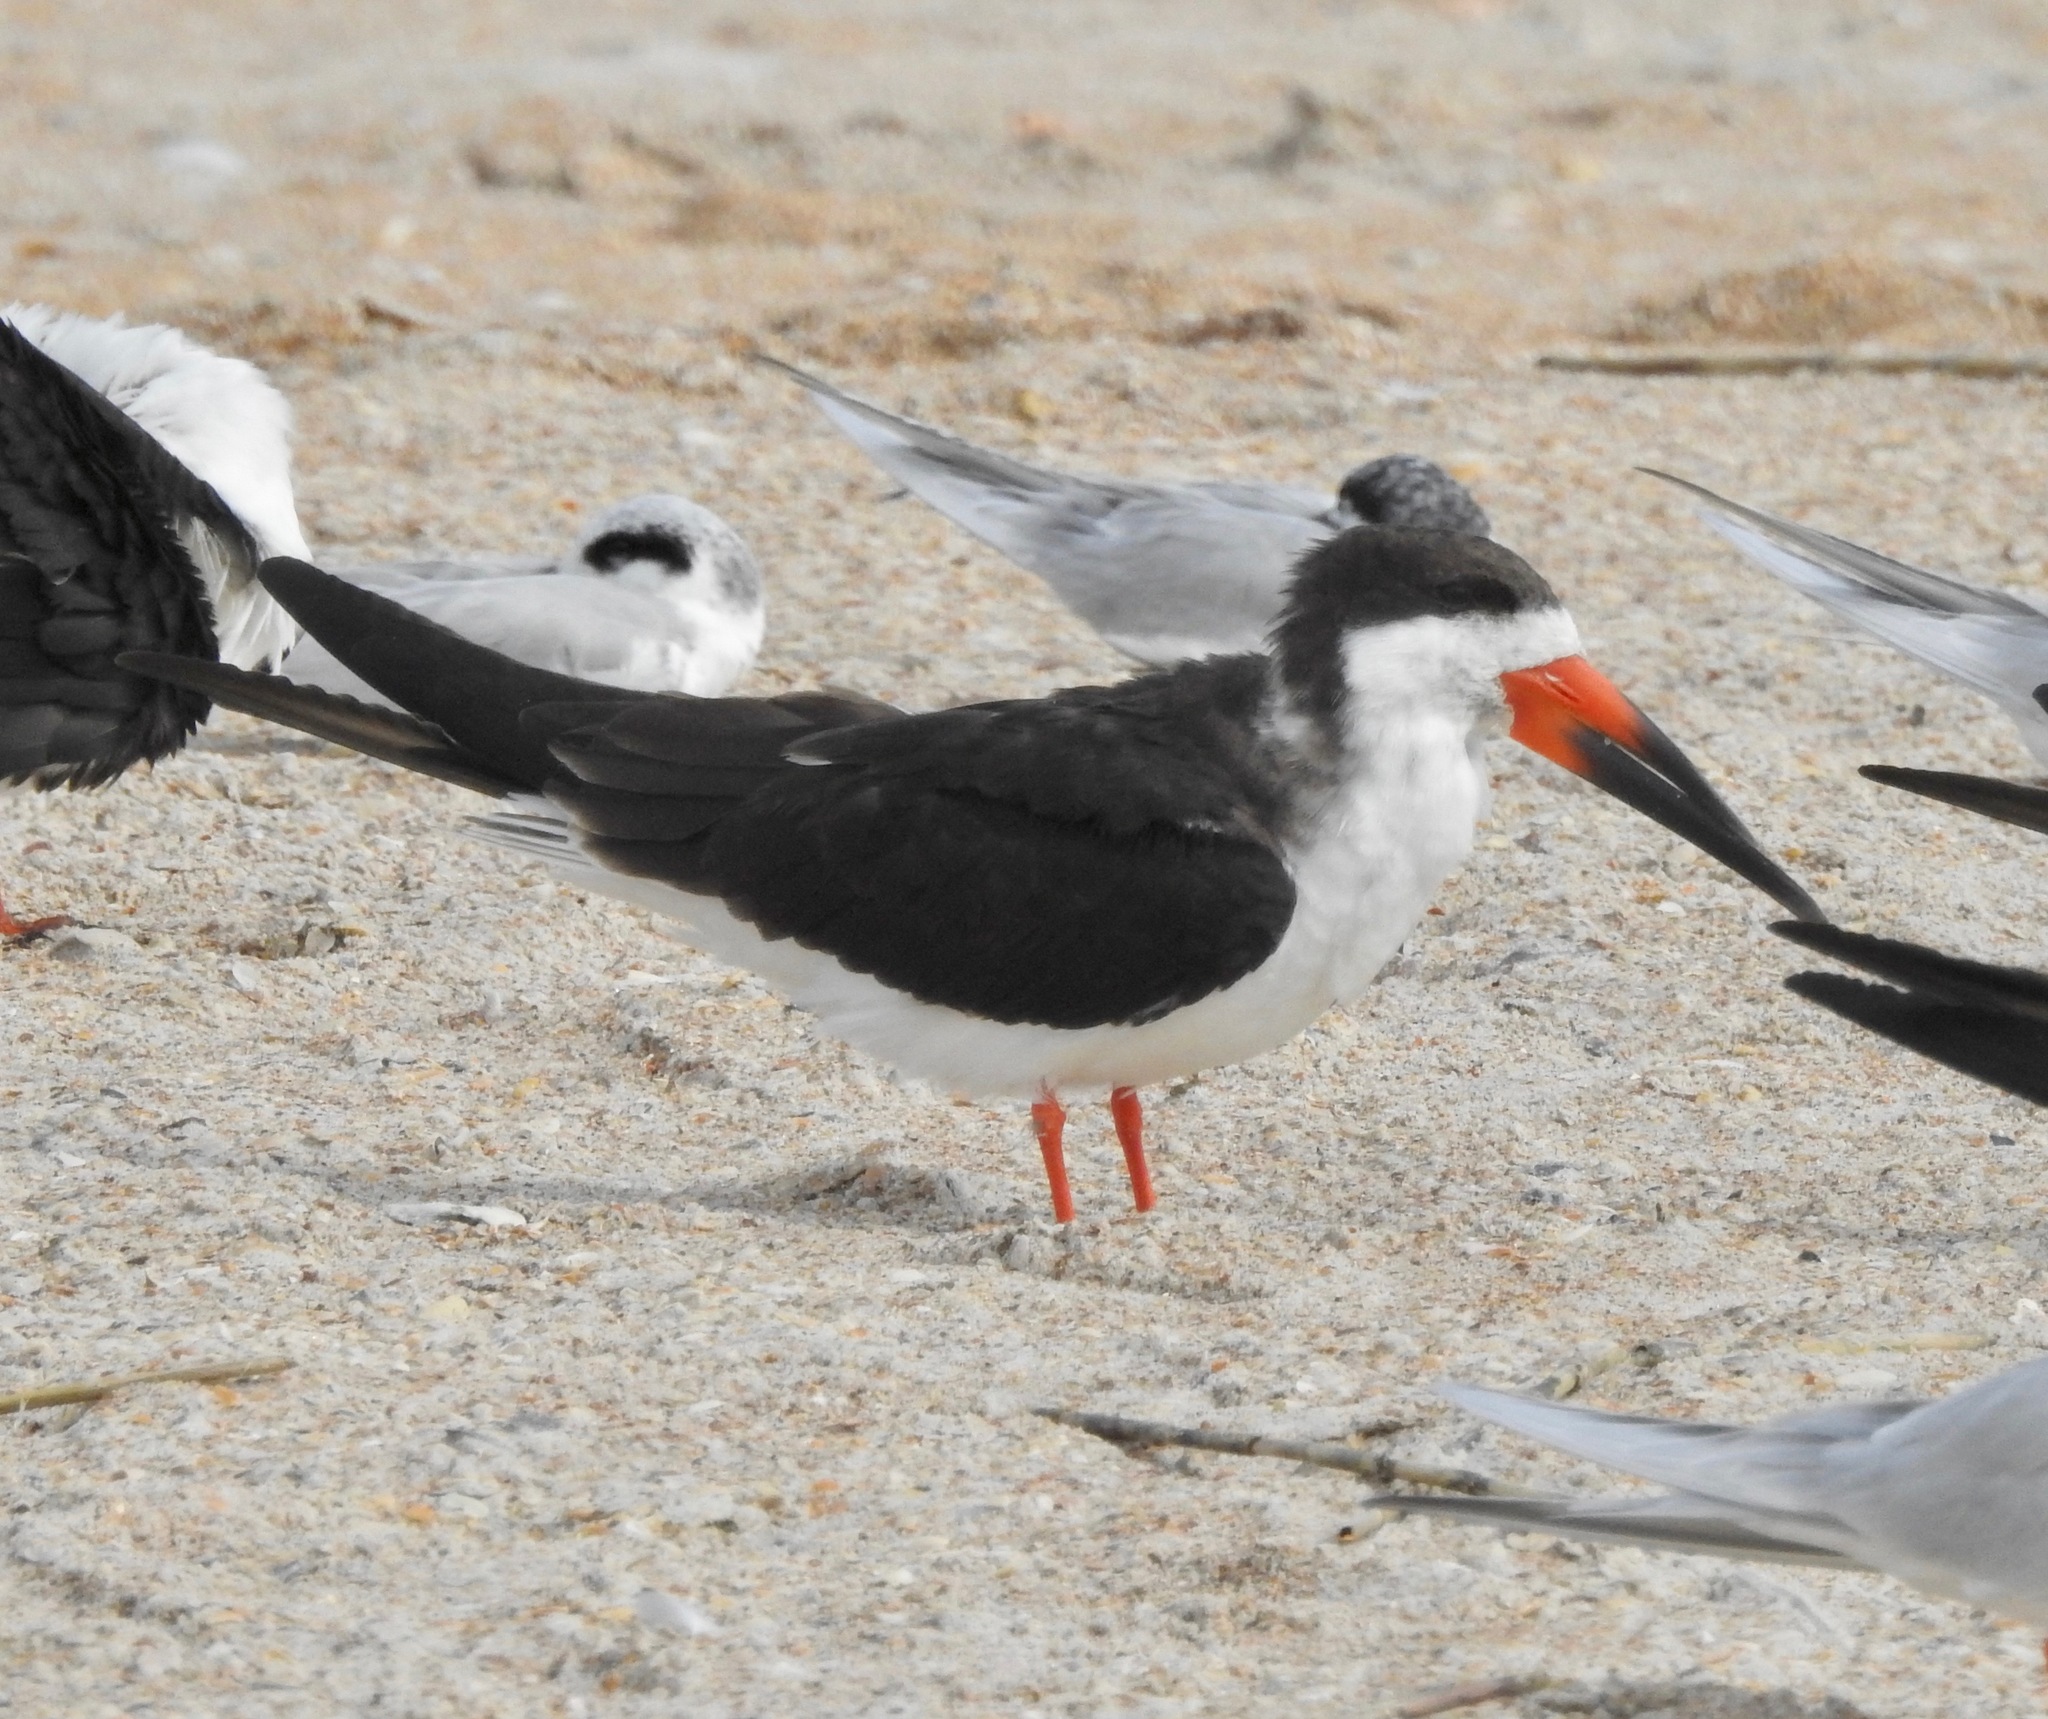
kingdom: Animalia
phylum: Chordata
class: Aves
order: Charadriiformes
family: Laridae
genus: Rynchops
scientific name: Rynchops niger
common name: Black skimmer
